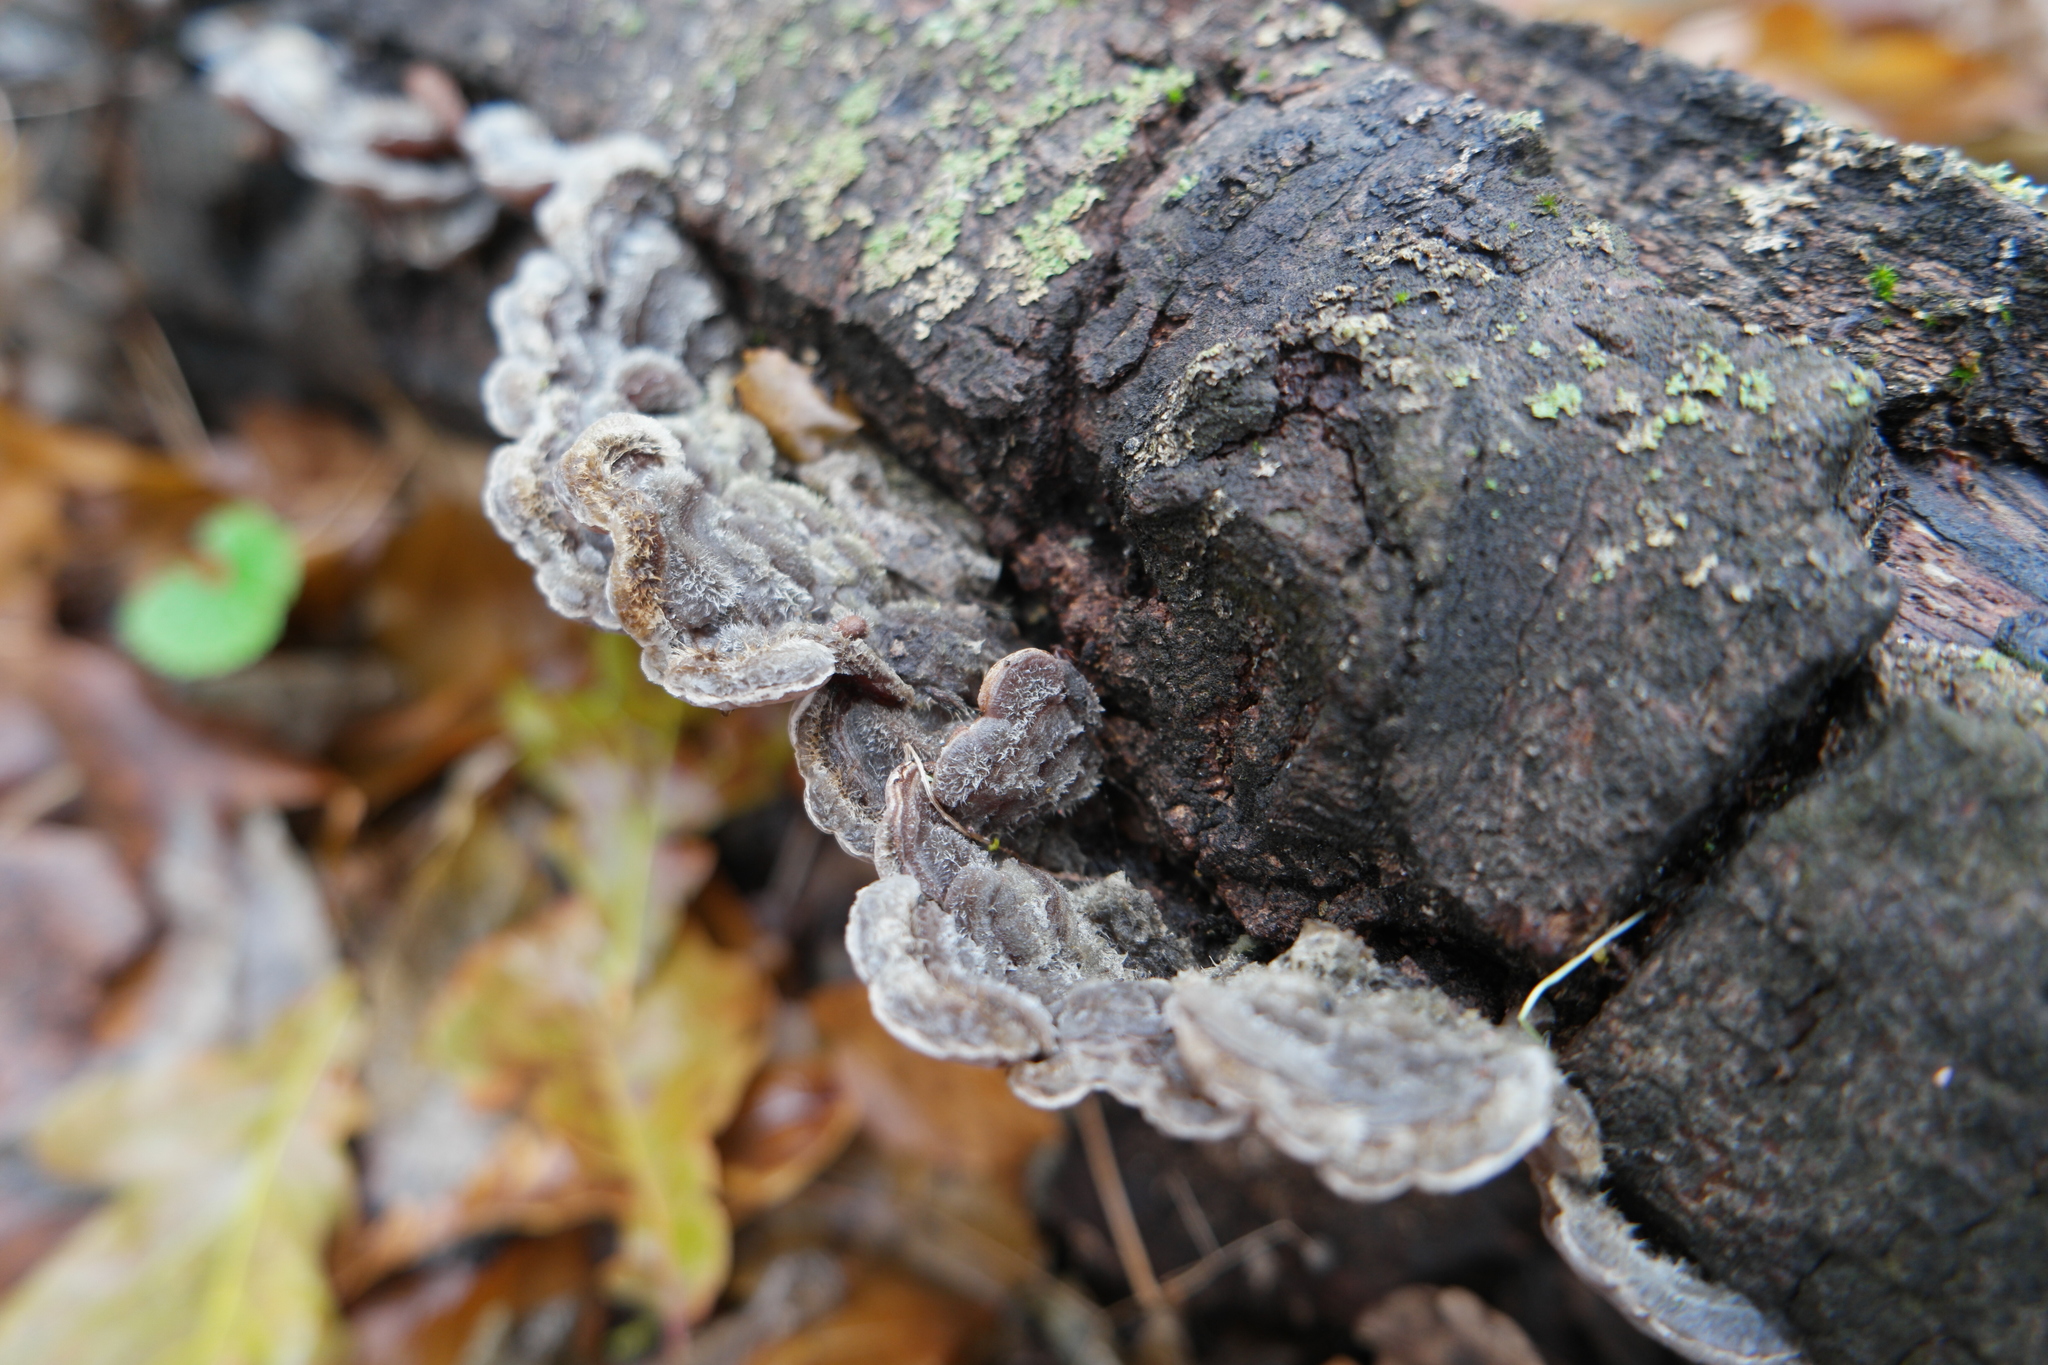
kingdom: Fungi
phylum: Basidiomycota
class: Agaricomycetes
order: Auriculariales
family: Auriculariaceae
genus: Auricularia
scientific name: Auricularia mesenterica
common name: Tripe fungus
